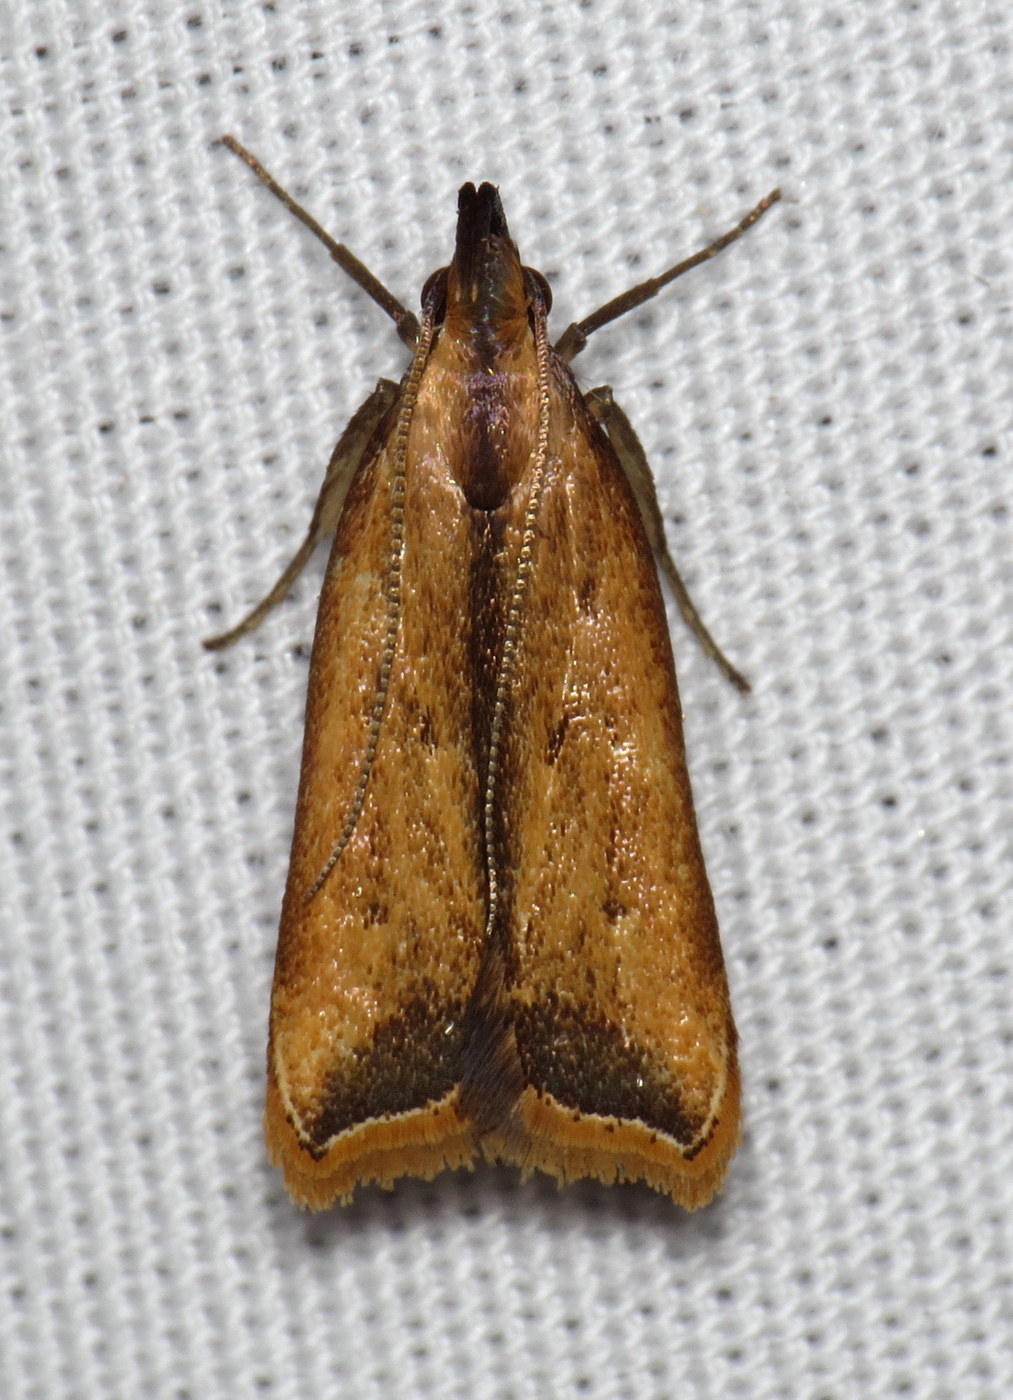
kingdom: Animalia
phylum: Arthropoda
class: Insecta
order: Lepidoptera
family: Gelechiidae
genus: Dichomeris
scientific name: Dichomeris heriguronis
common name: Black-edged dichomeris moth
